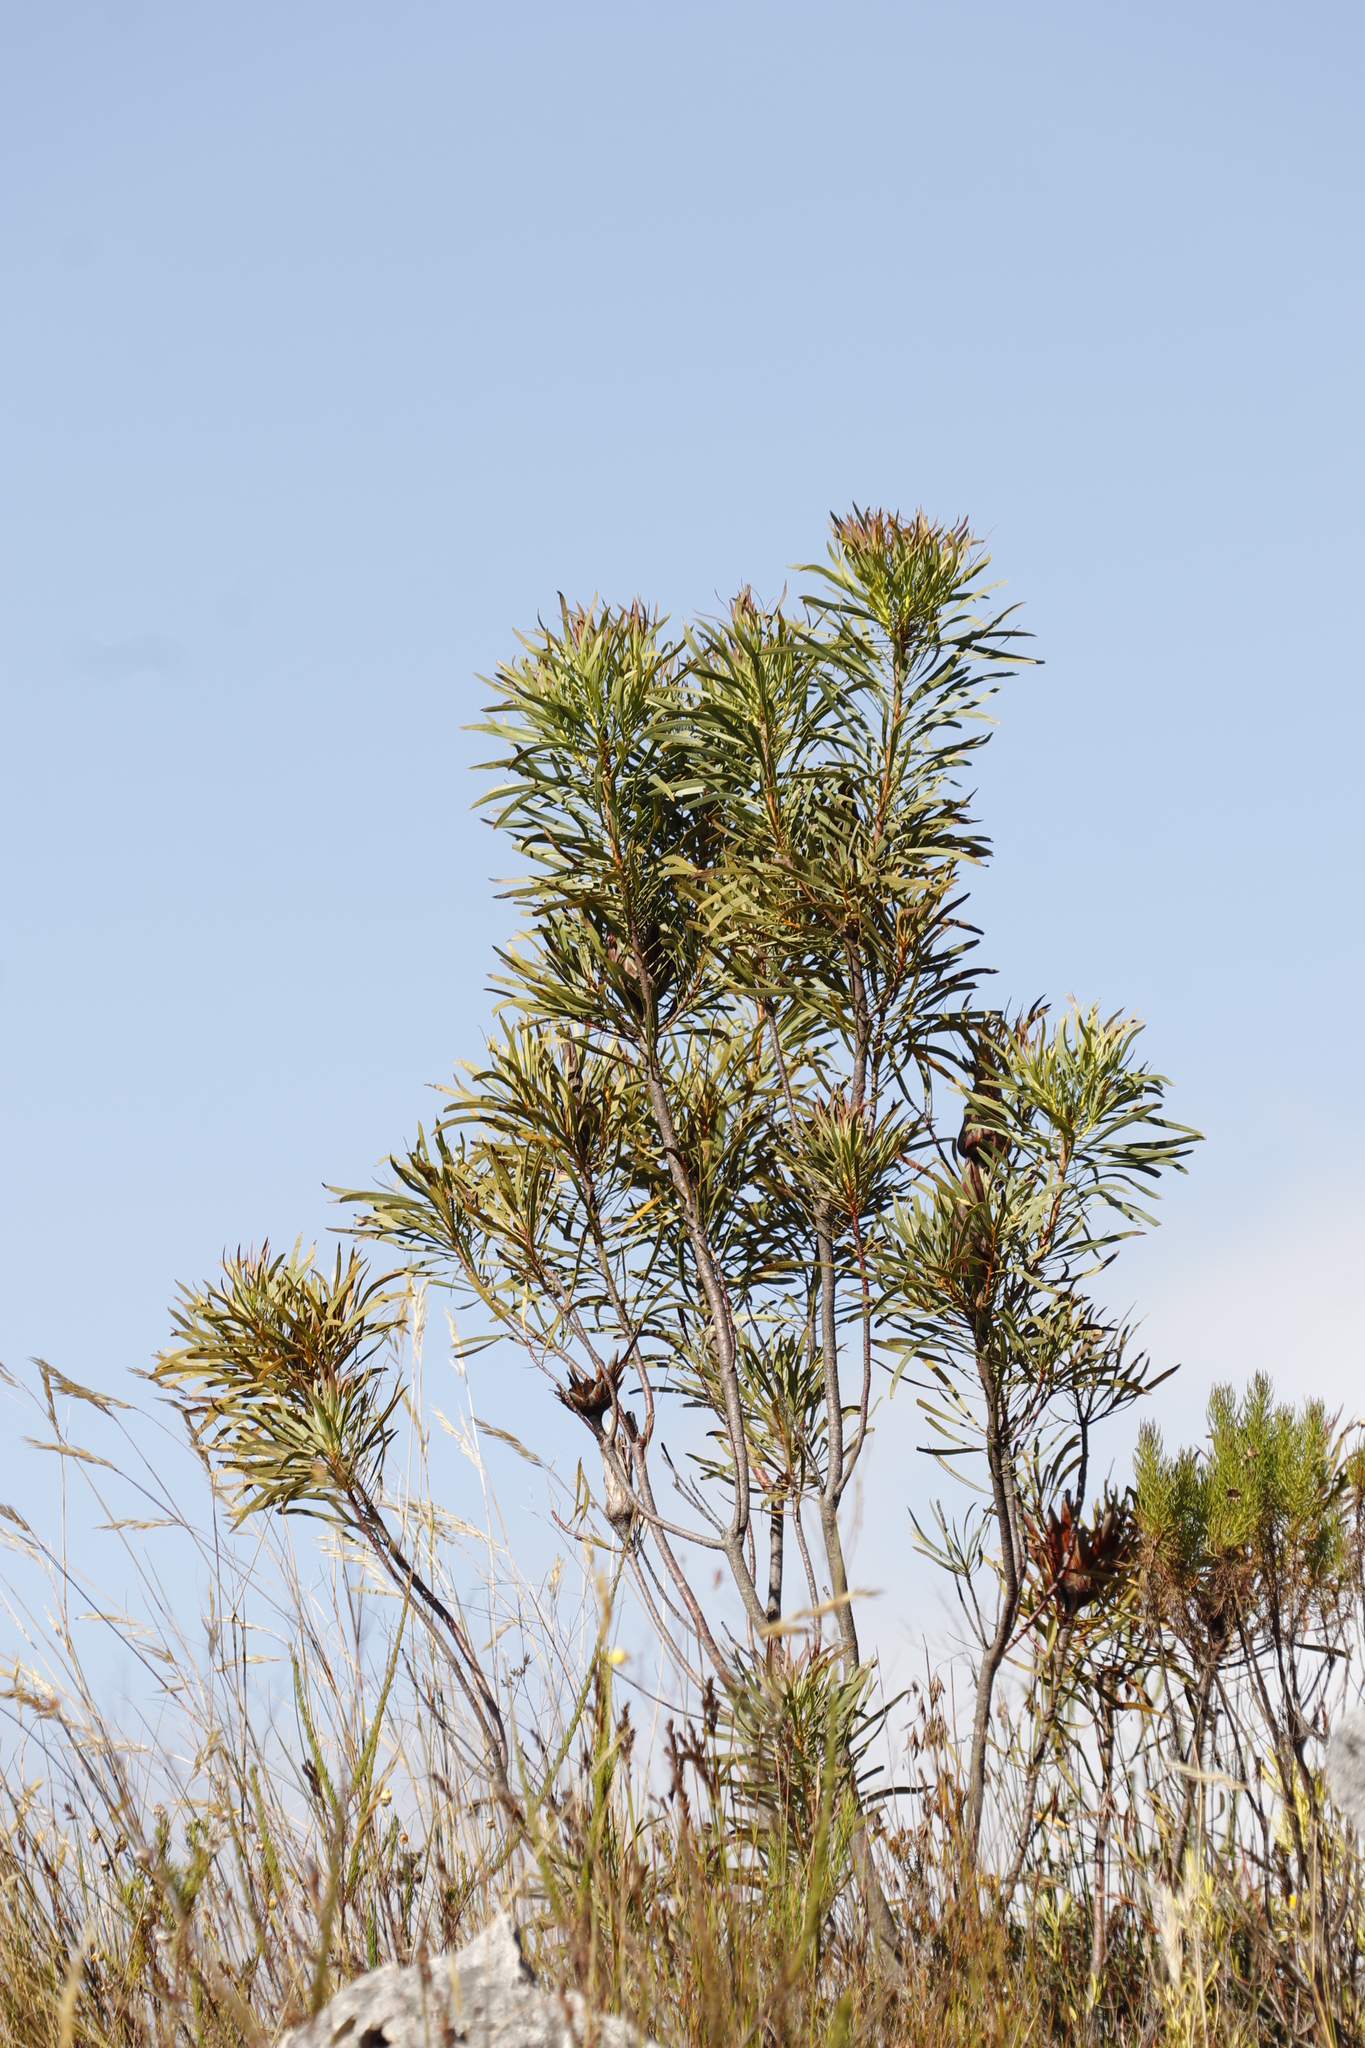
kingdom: Plantae
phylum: Tracheophyta
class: Magnoliopsida
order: Proteales
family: Proteaceae
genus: Protea
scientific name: Protea repens
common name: Sugarbush
